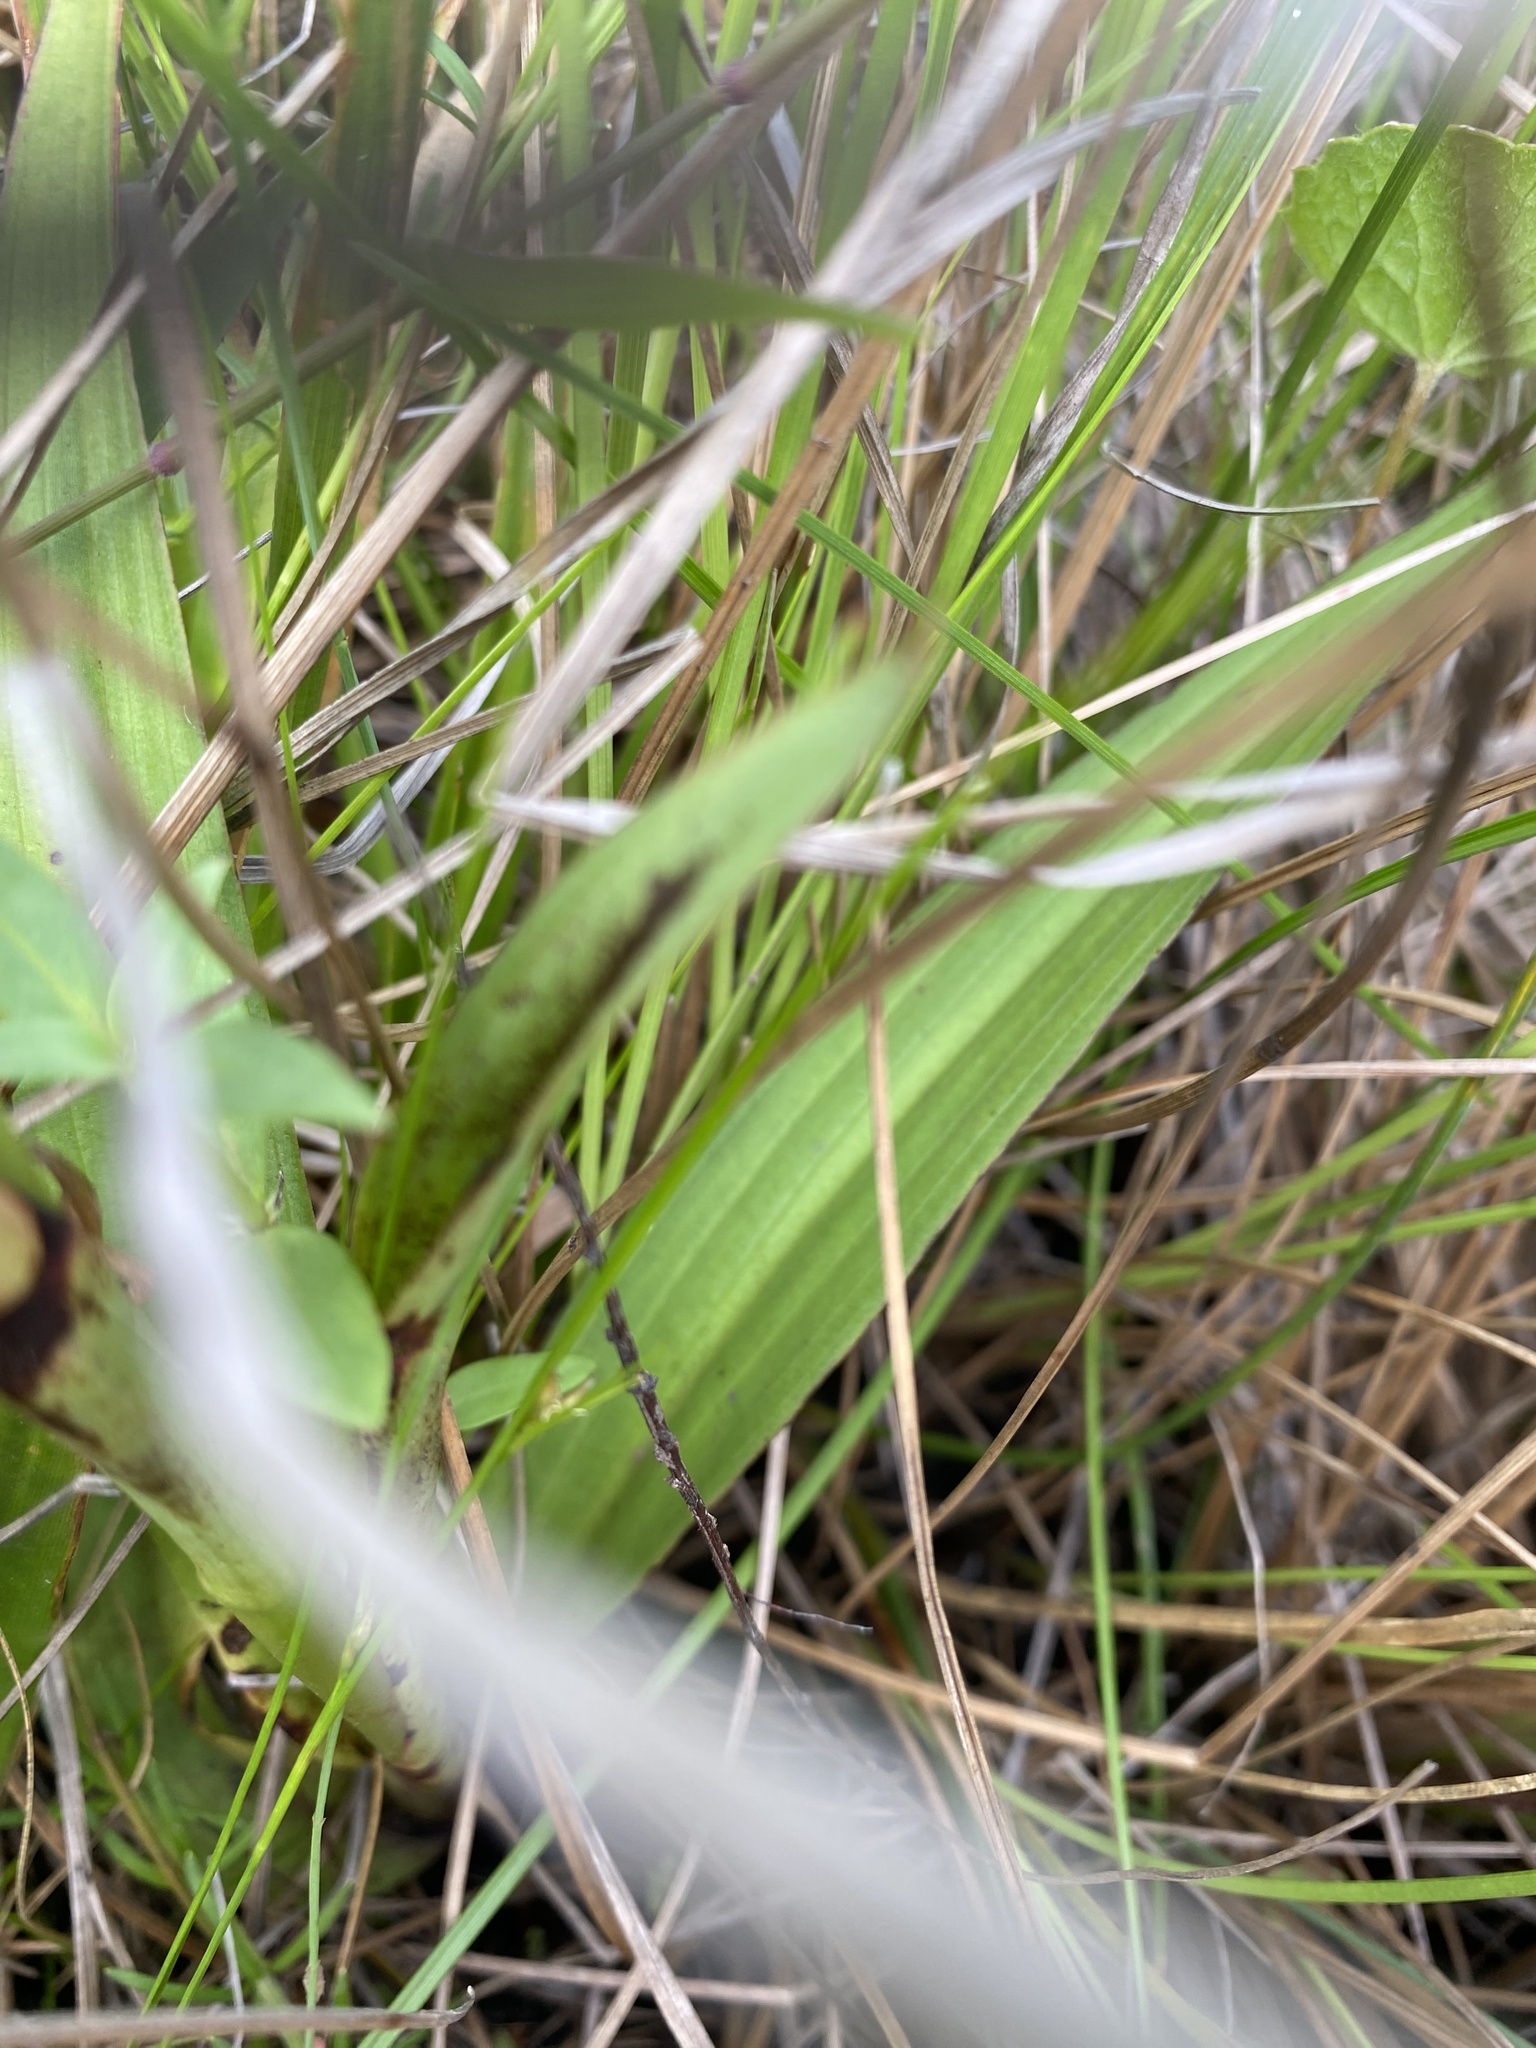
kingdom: Plantae
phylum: Tracheophyta
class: Liliopsida
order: Asparagales
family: Orchidaceae
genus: Disa
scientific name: Disa polygonoides
